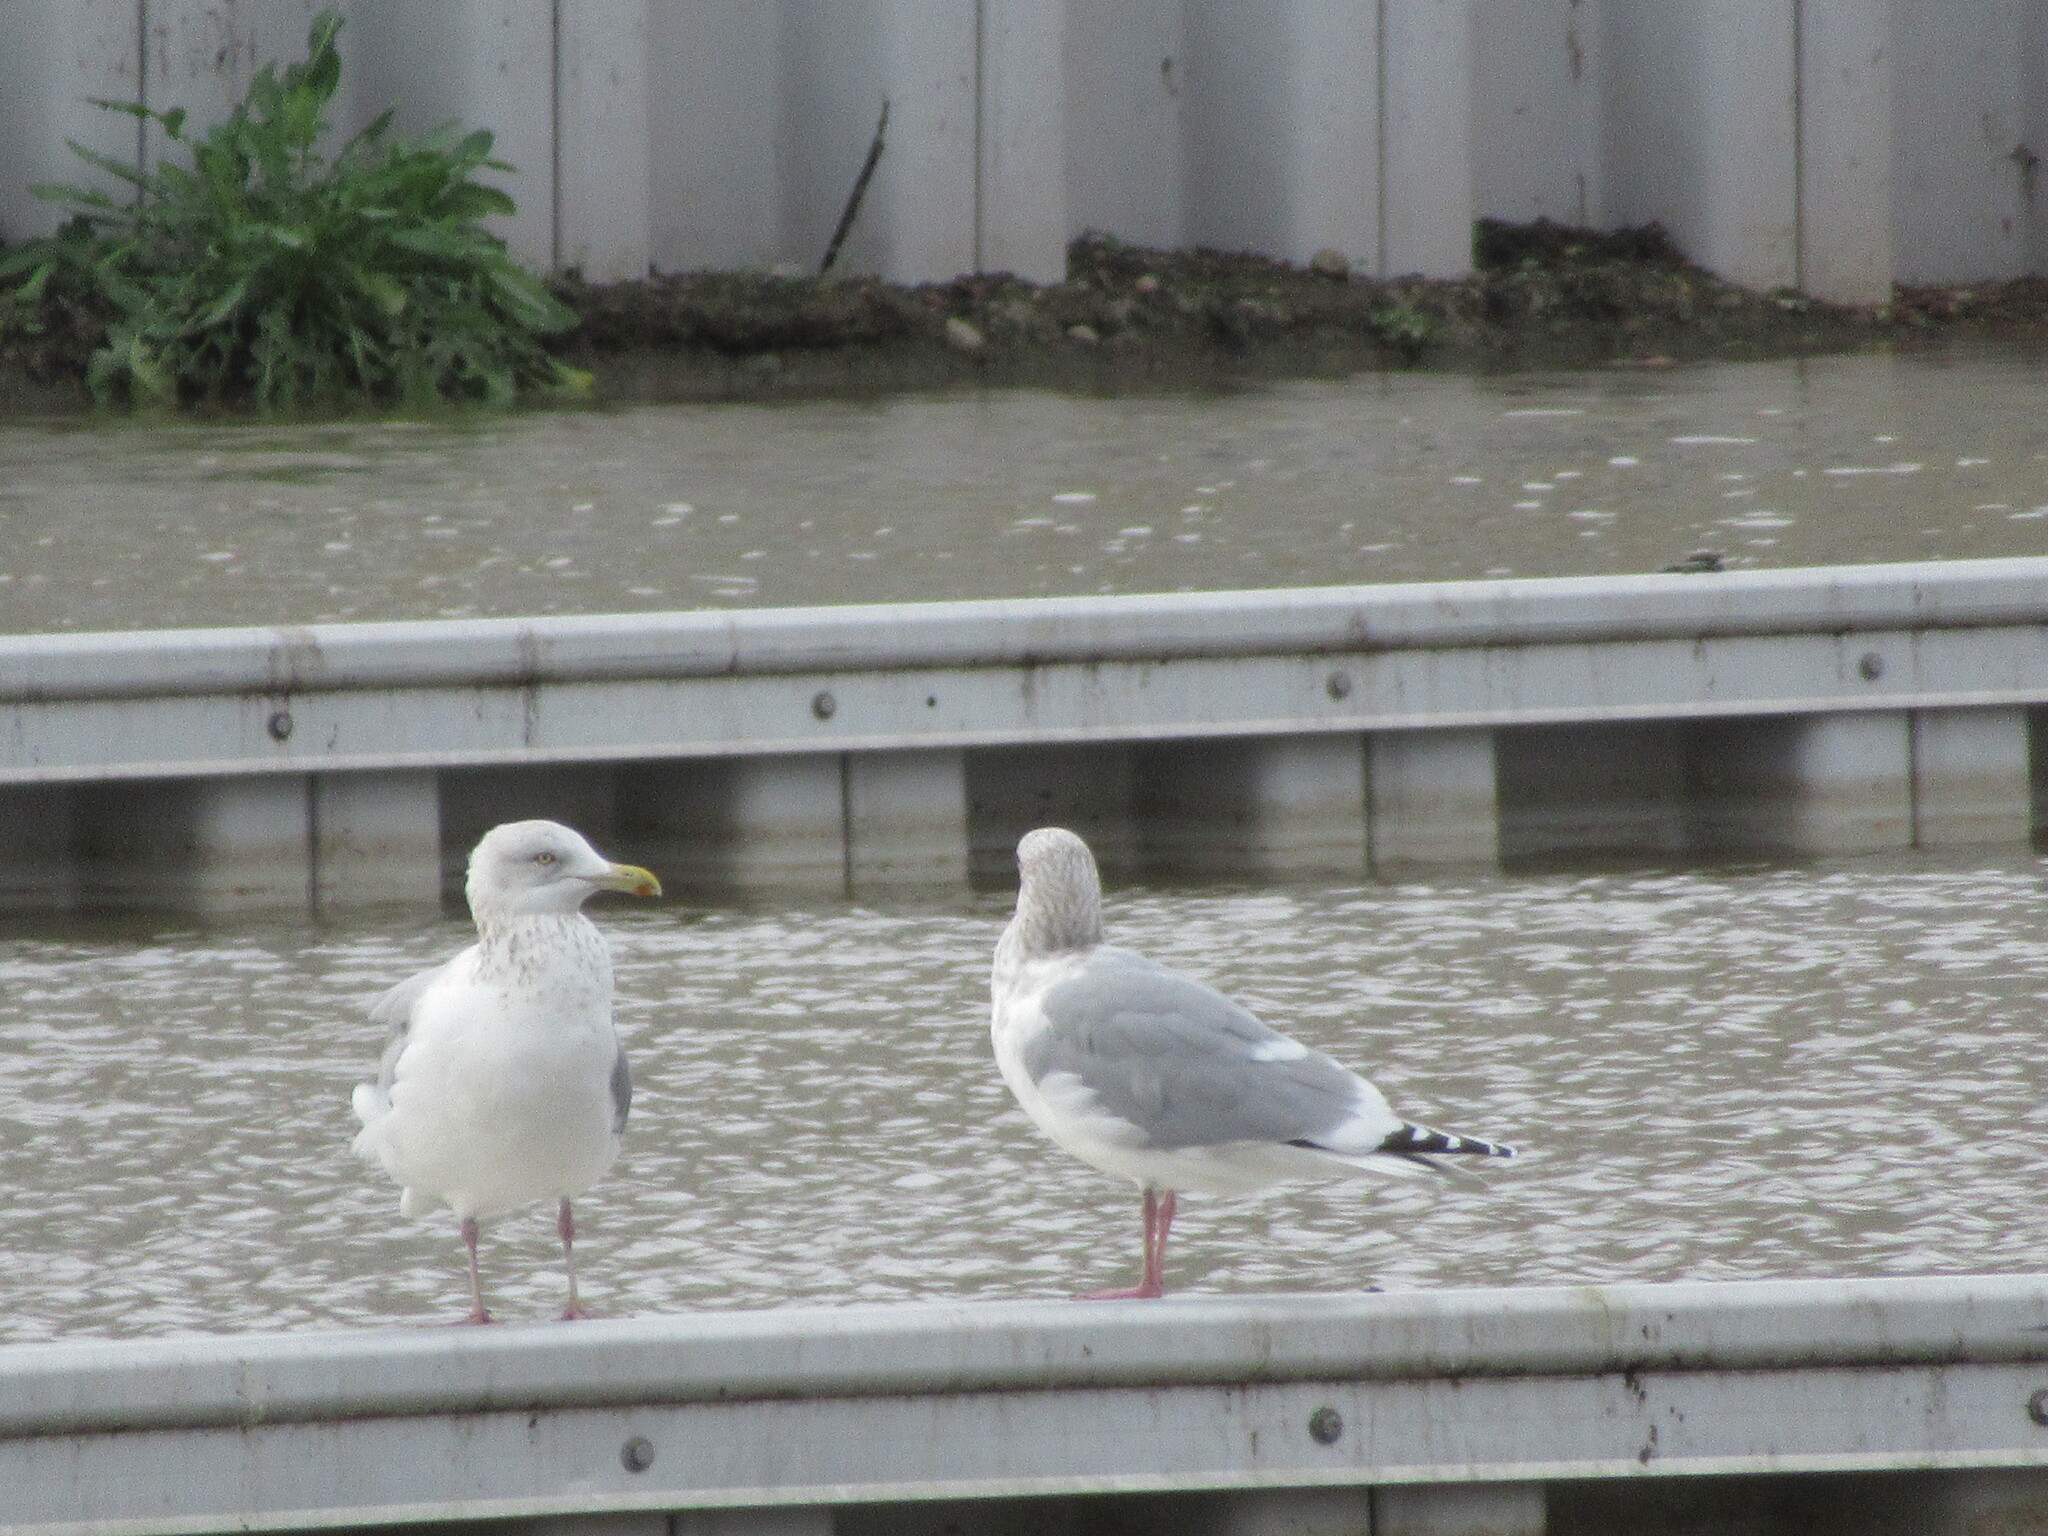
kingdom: Animalia
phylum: Chordata
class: Aves
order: Charadriiformes
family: Laridae
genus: Larus
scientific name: Larus argentatus
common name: Herring gull
